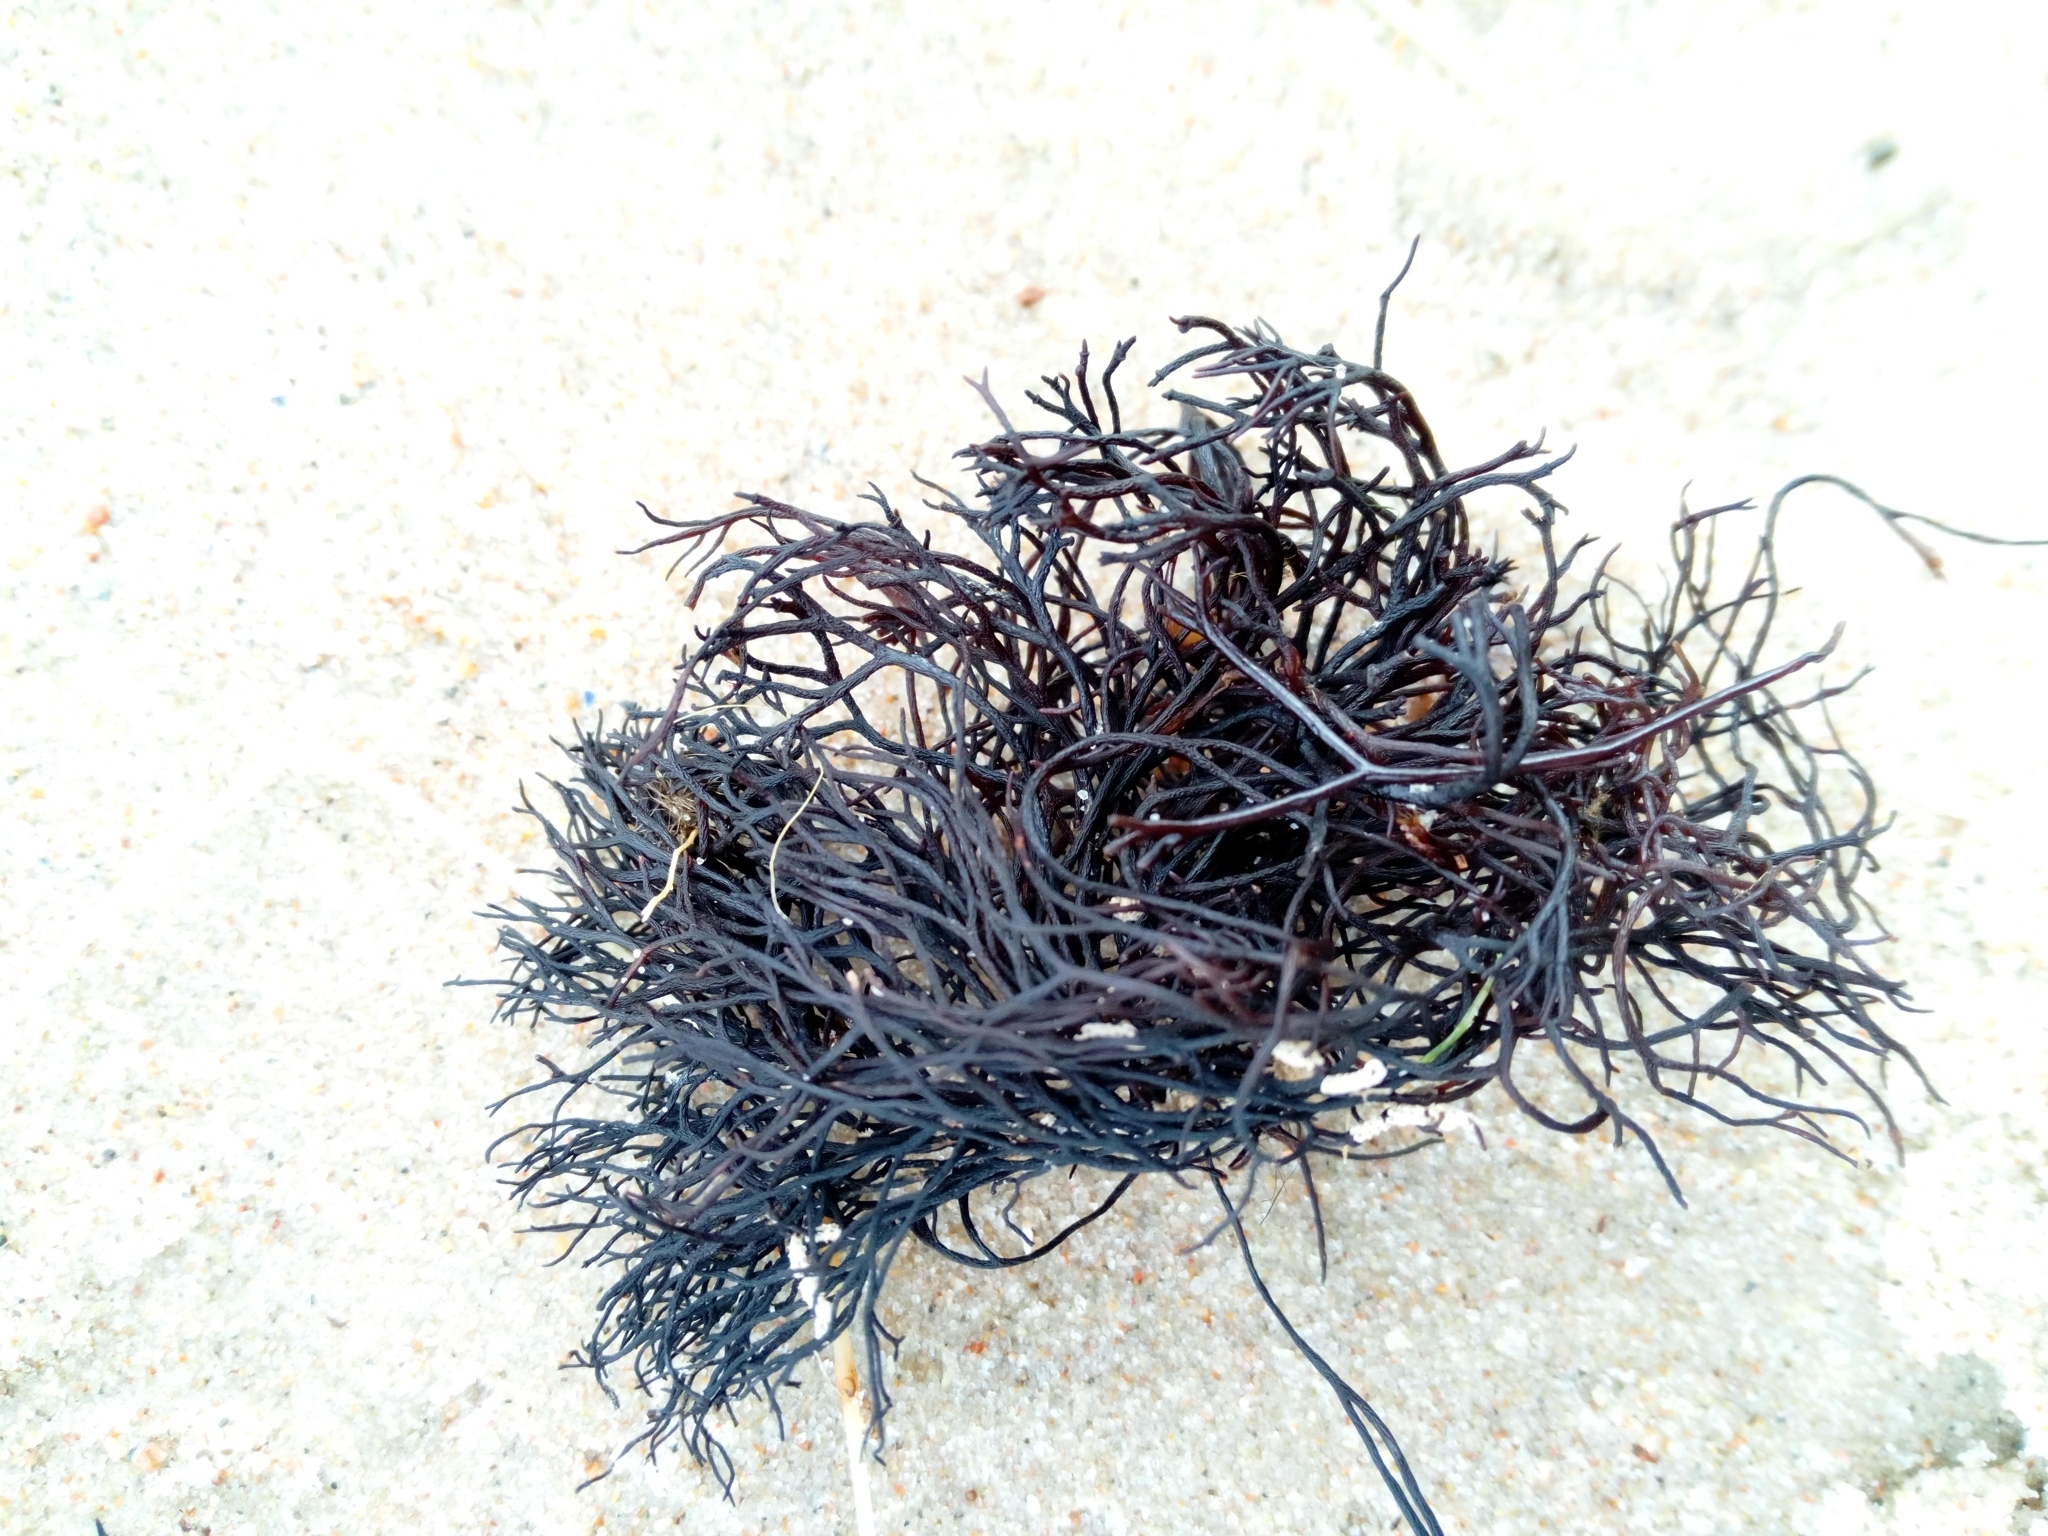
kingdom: Plantae
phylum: Rhodophyta
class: Florideophyceae
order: Gigartinales
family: Furcellariaceae
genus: Furcellaria
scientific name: Furcellaria lumbricalis
